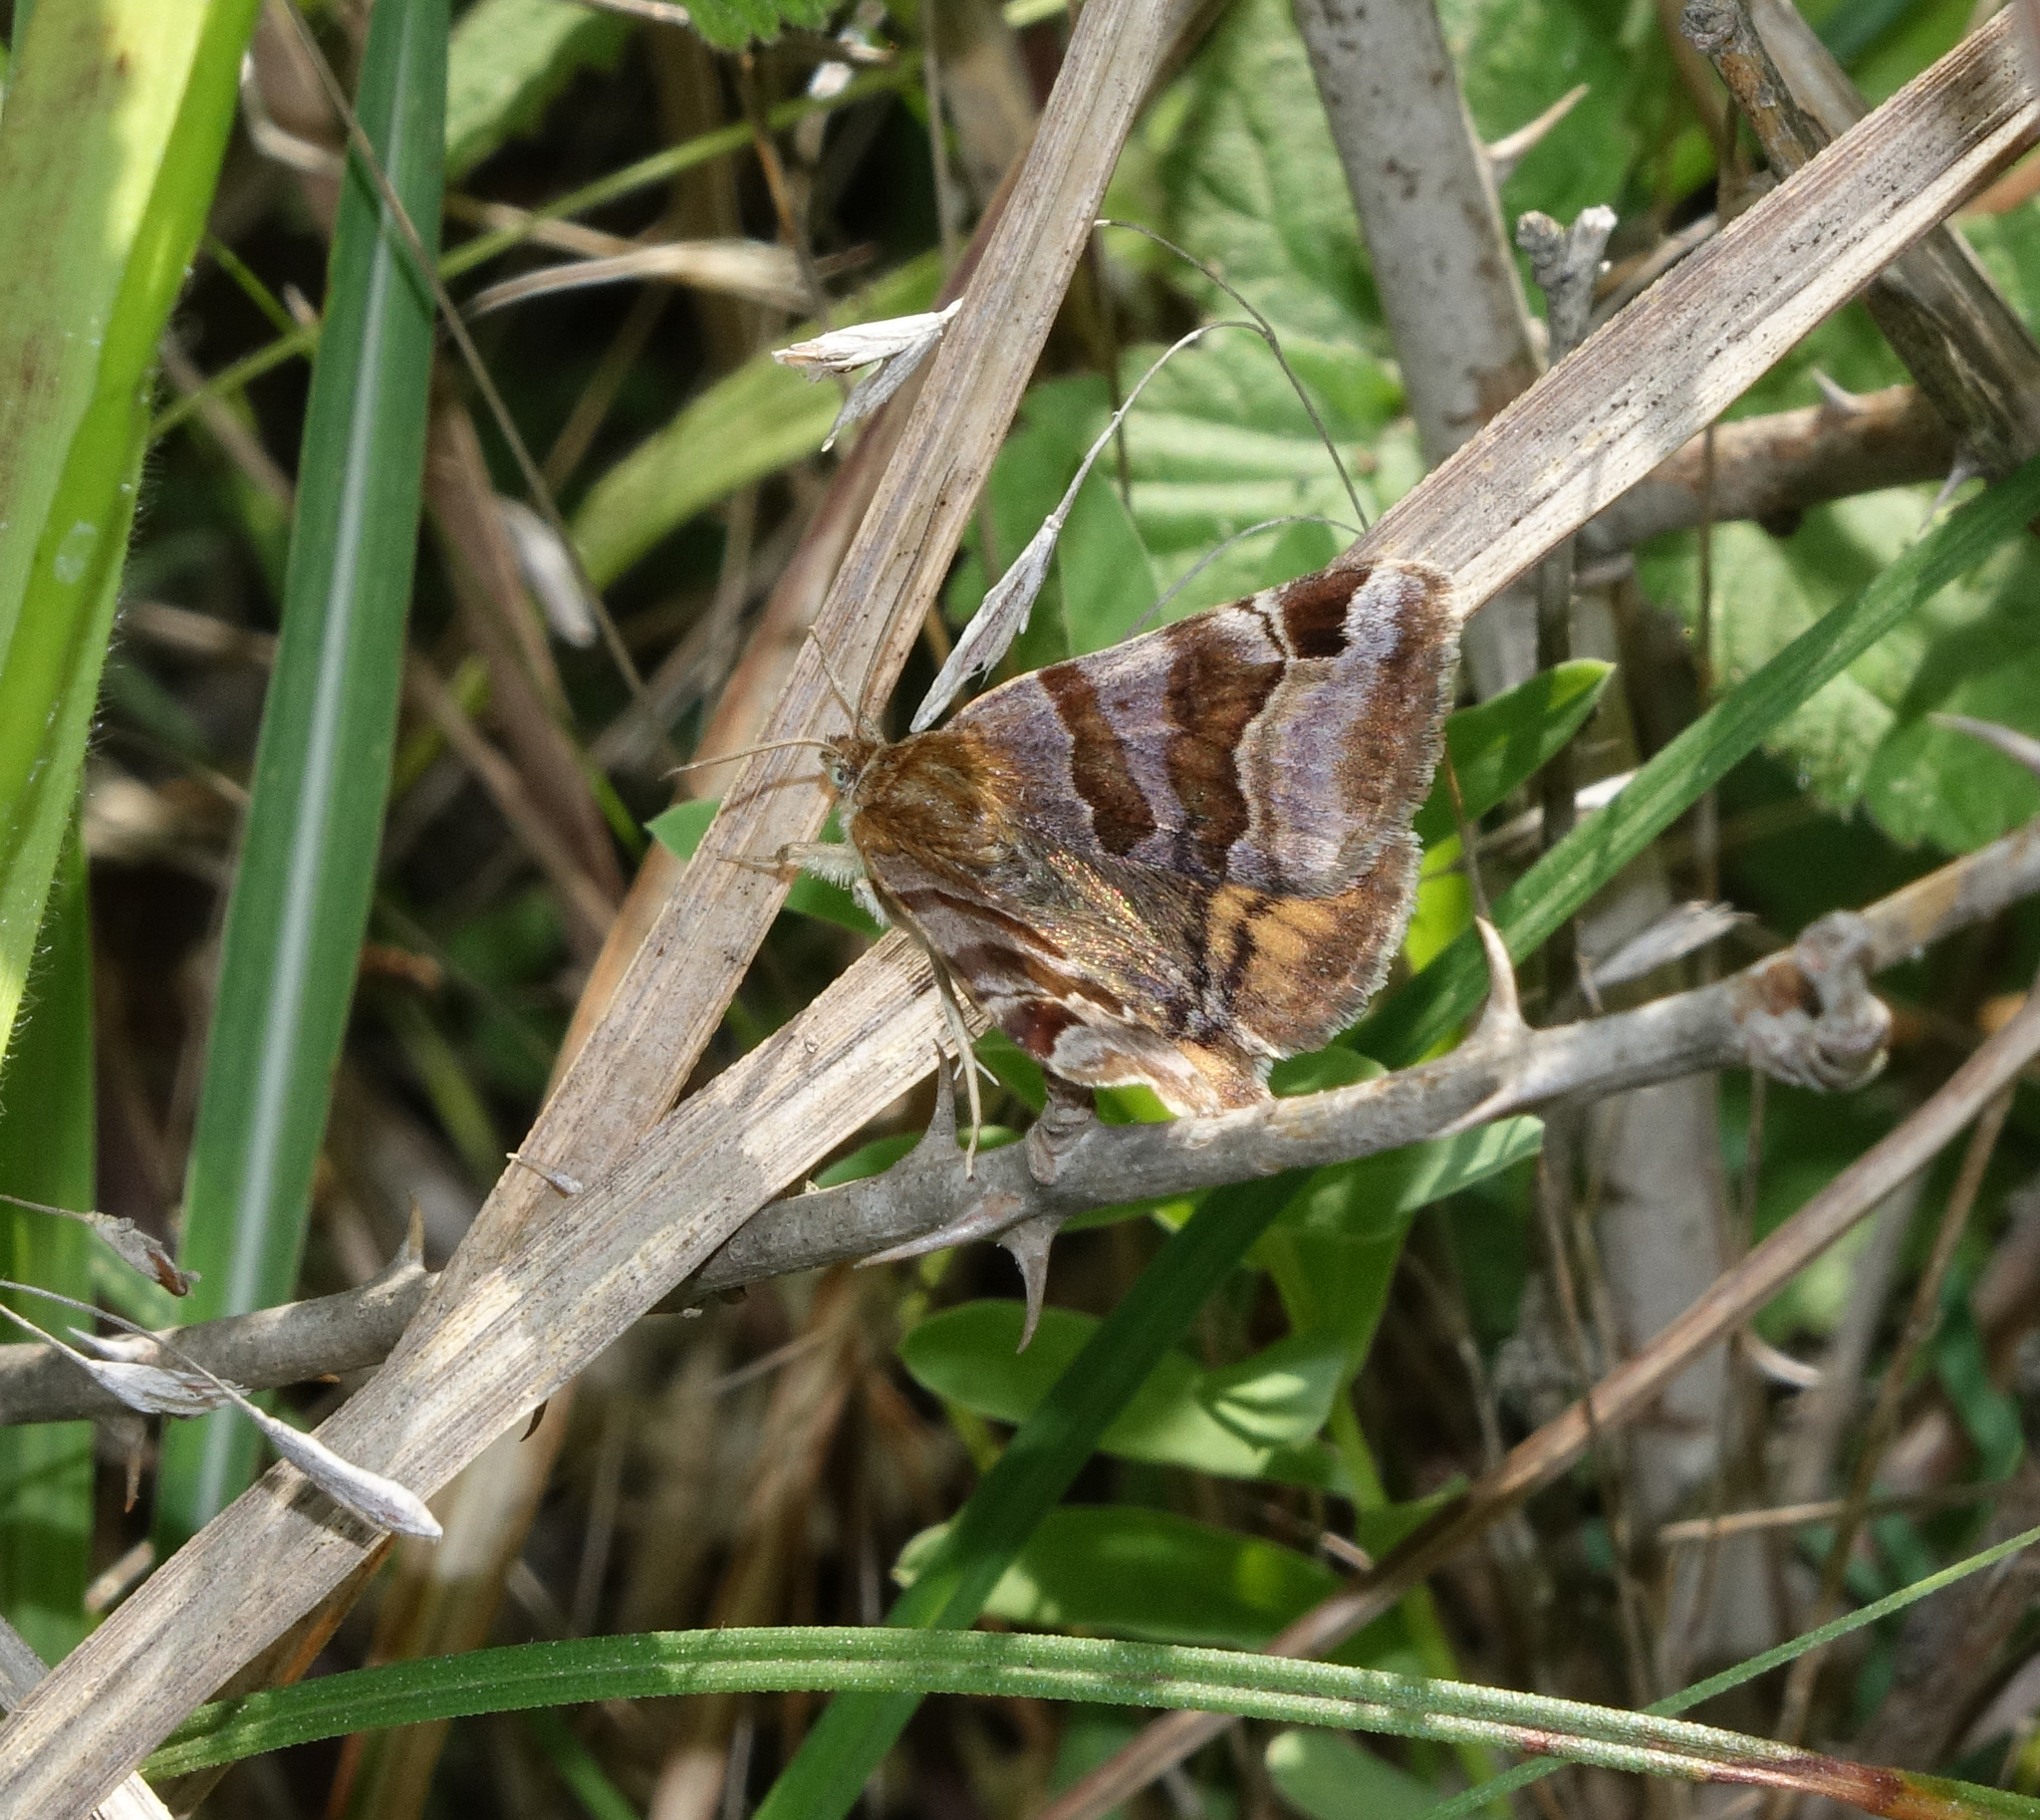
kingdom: Animalia
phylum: Arthropoda
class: Insecta
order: Lepidoptera
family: Erebidae
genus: Euclidia
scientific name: Euclidia glyphica
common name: Burnet companion
